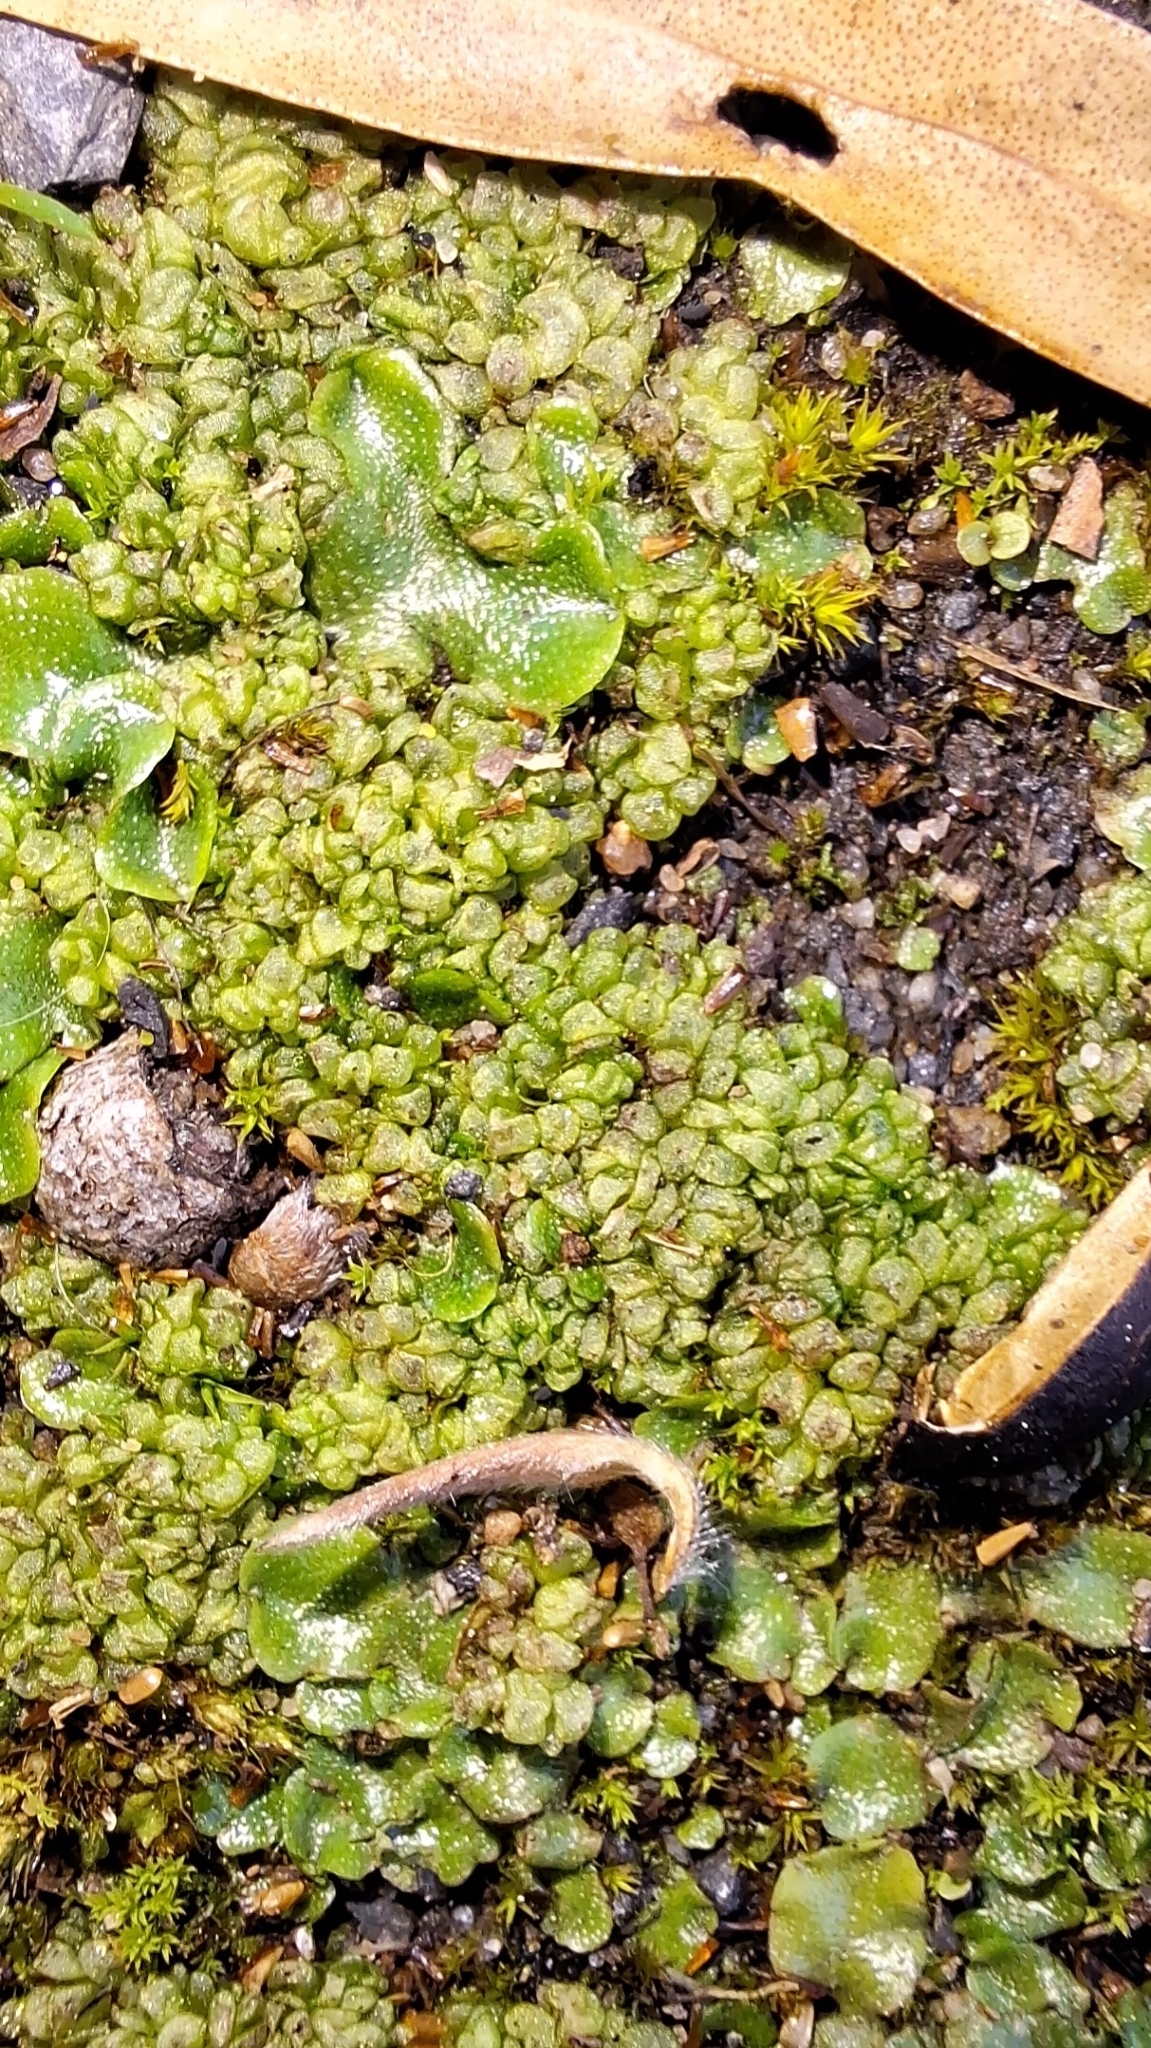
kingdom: Plantae
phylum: Marchantiophyta
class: Marchantiopsida
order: Sphaerocarpales
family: Sphaerocarpaceae
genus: Sphaerocarpos
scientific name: Sphaerocarpos texanus
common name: Texas balloonwort
